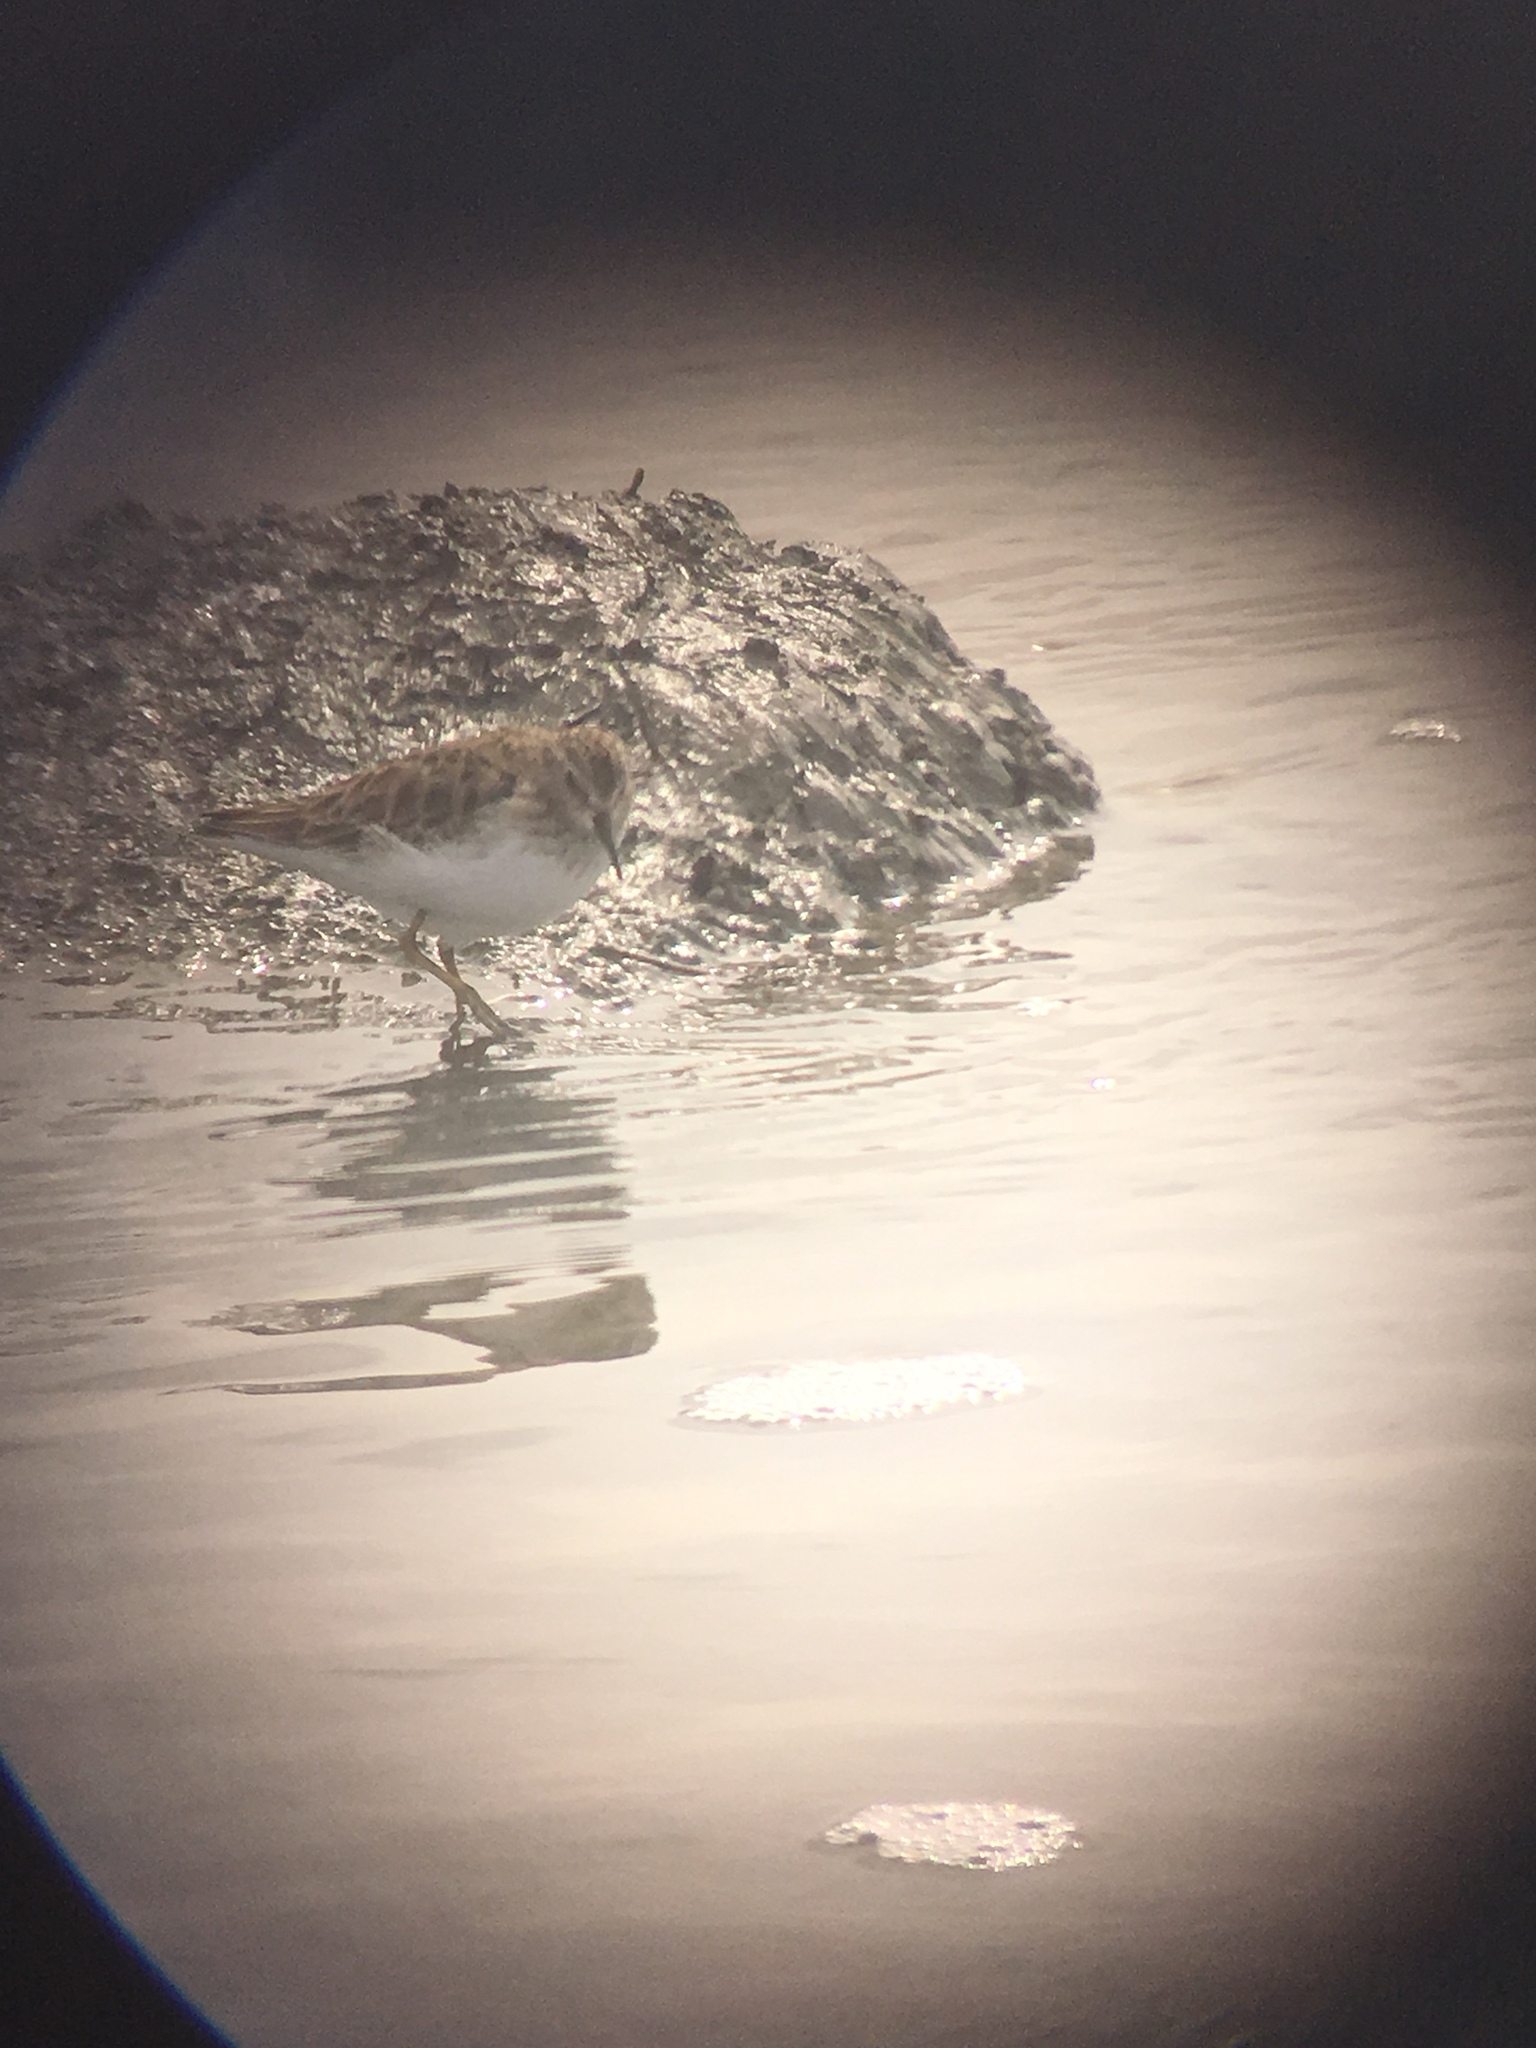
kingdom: Animalia
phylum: Chordata
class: Aves
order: Charadriiformes
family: Scolopacidae
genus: Calidris
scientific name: Calidris minutilla
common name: Least sandpiper
